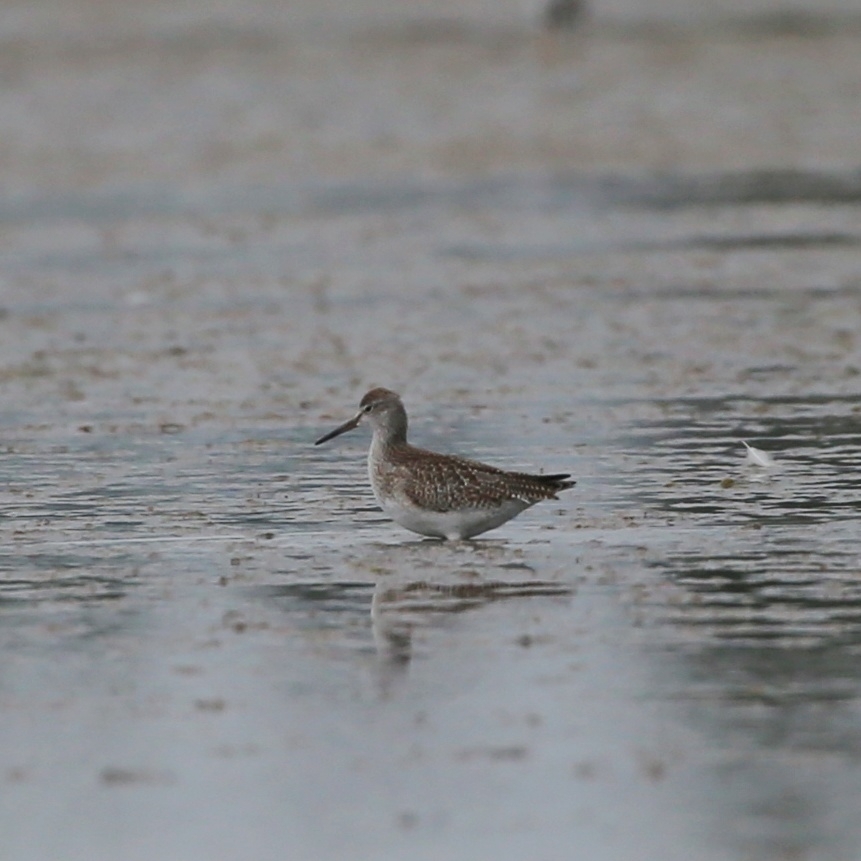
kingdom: Animalia
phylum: Chordata
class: Aves
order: Charadriiformes
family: Scolopacidae
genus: Tringa
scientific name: Tringa totanus
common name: Common redshank
